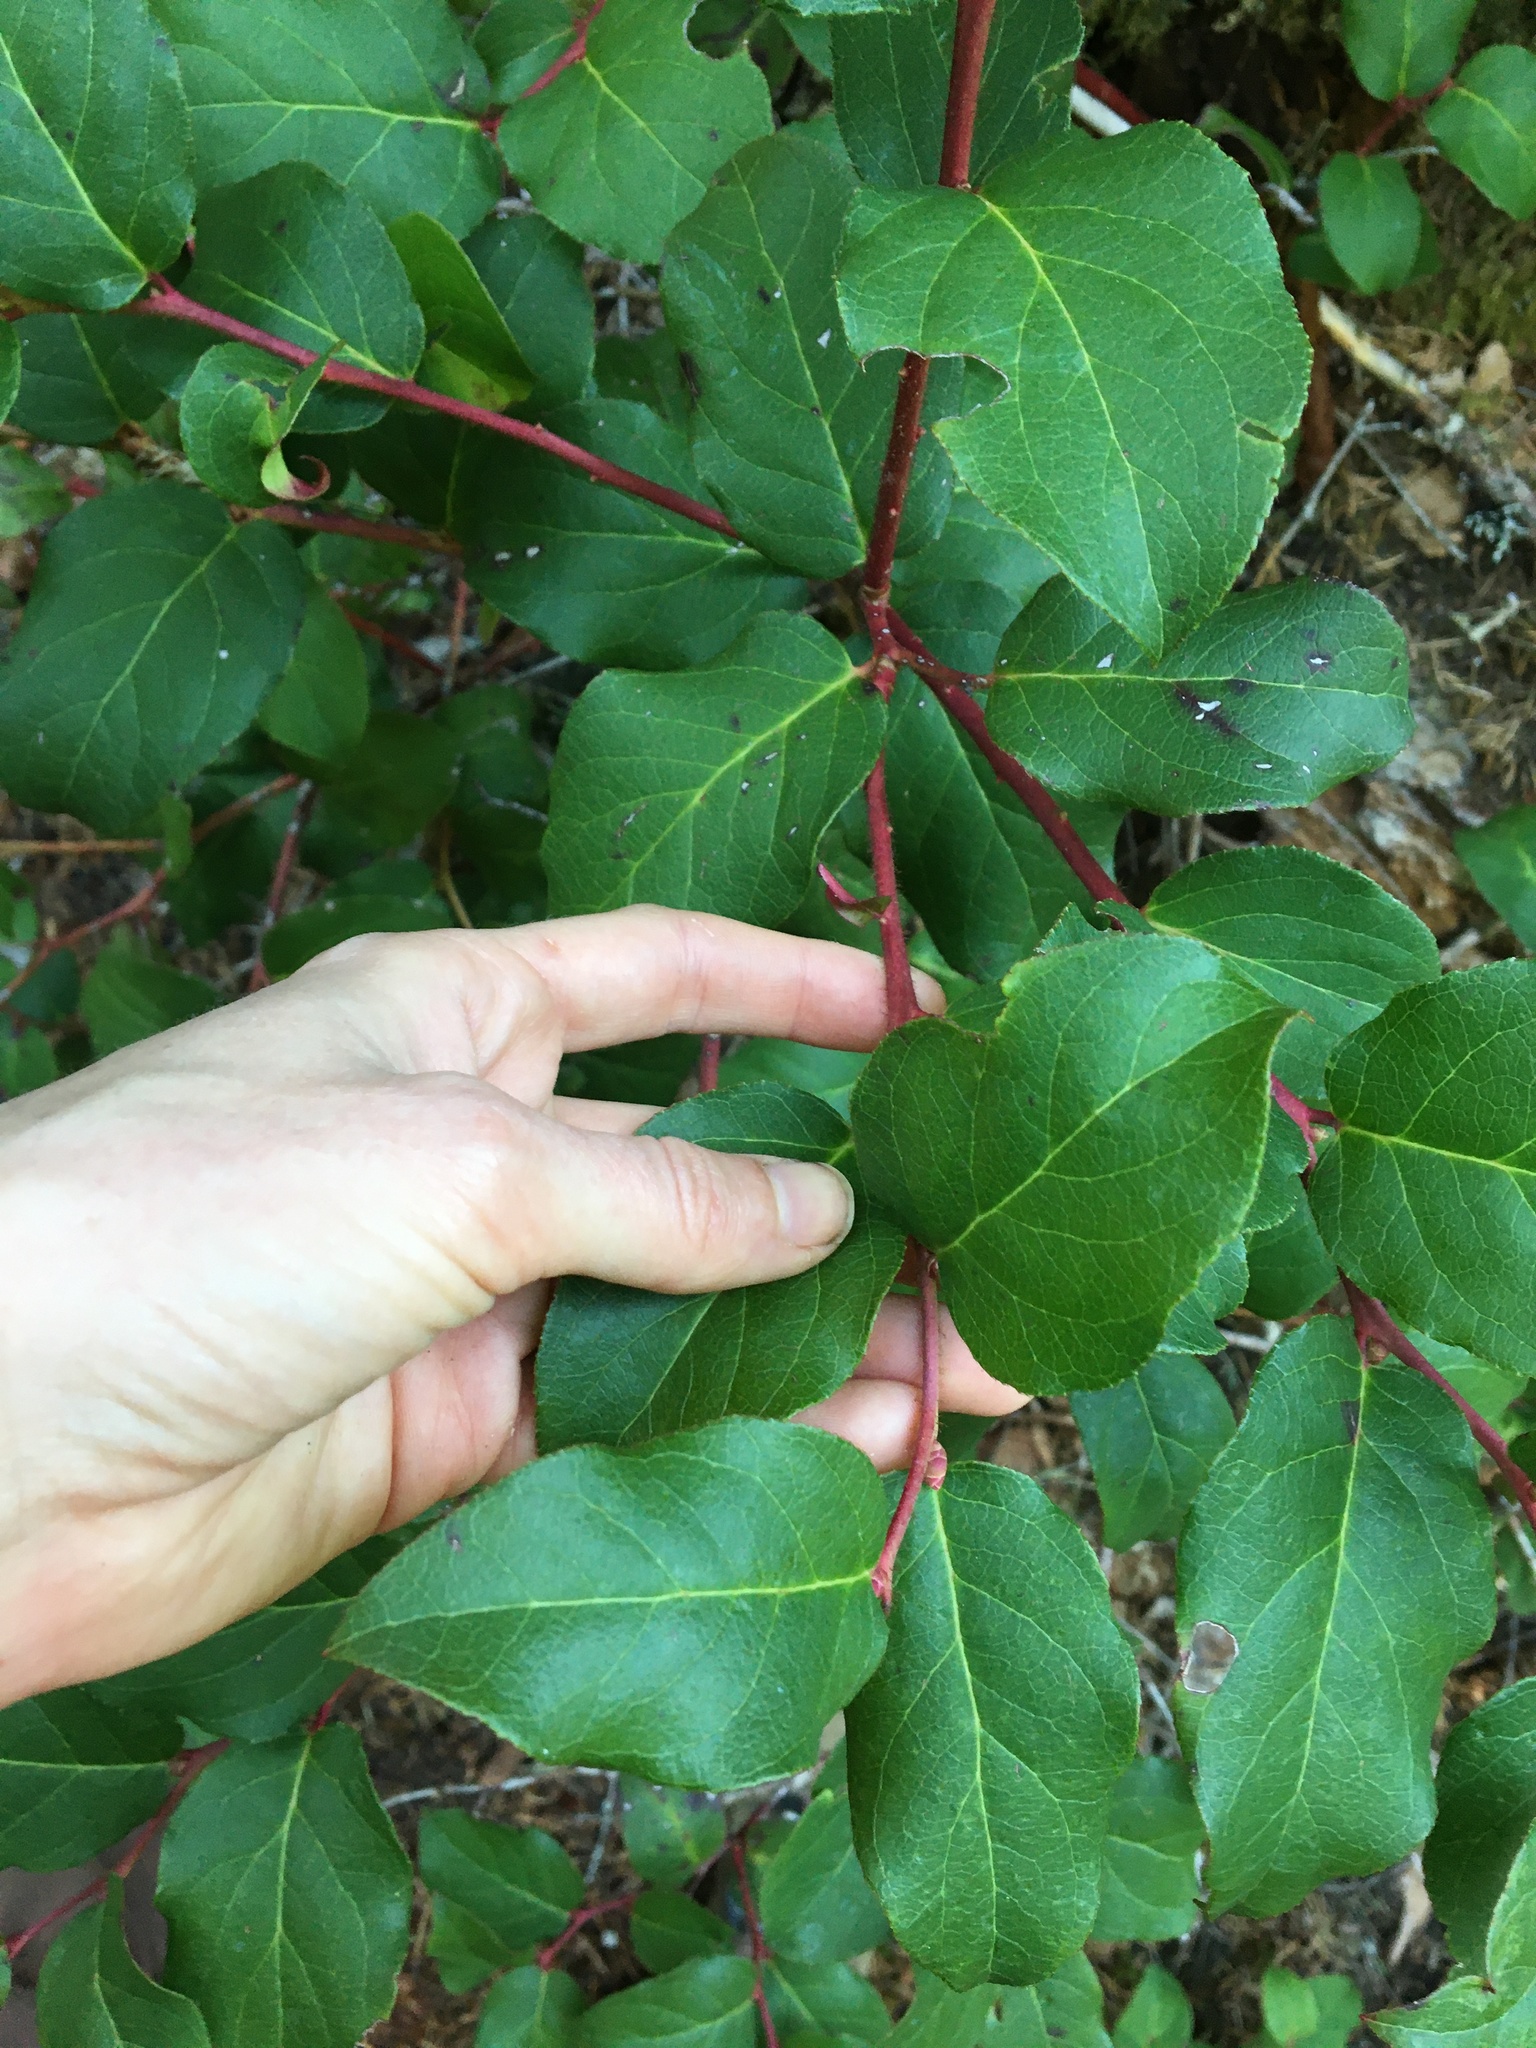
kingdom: Plantae
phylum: Tracheophyta
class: Magnoliopsida
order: Ericales
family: Ericaceae
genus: Gaultheria
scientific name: Gaultheria shallon
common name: Shallon
